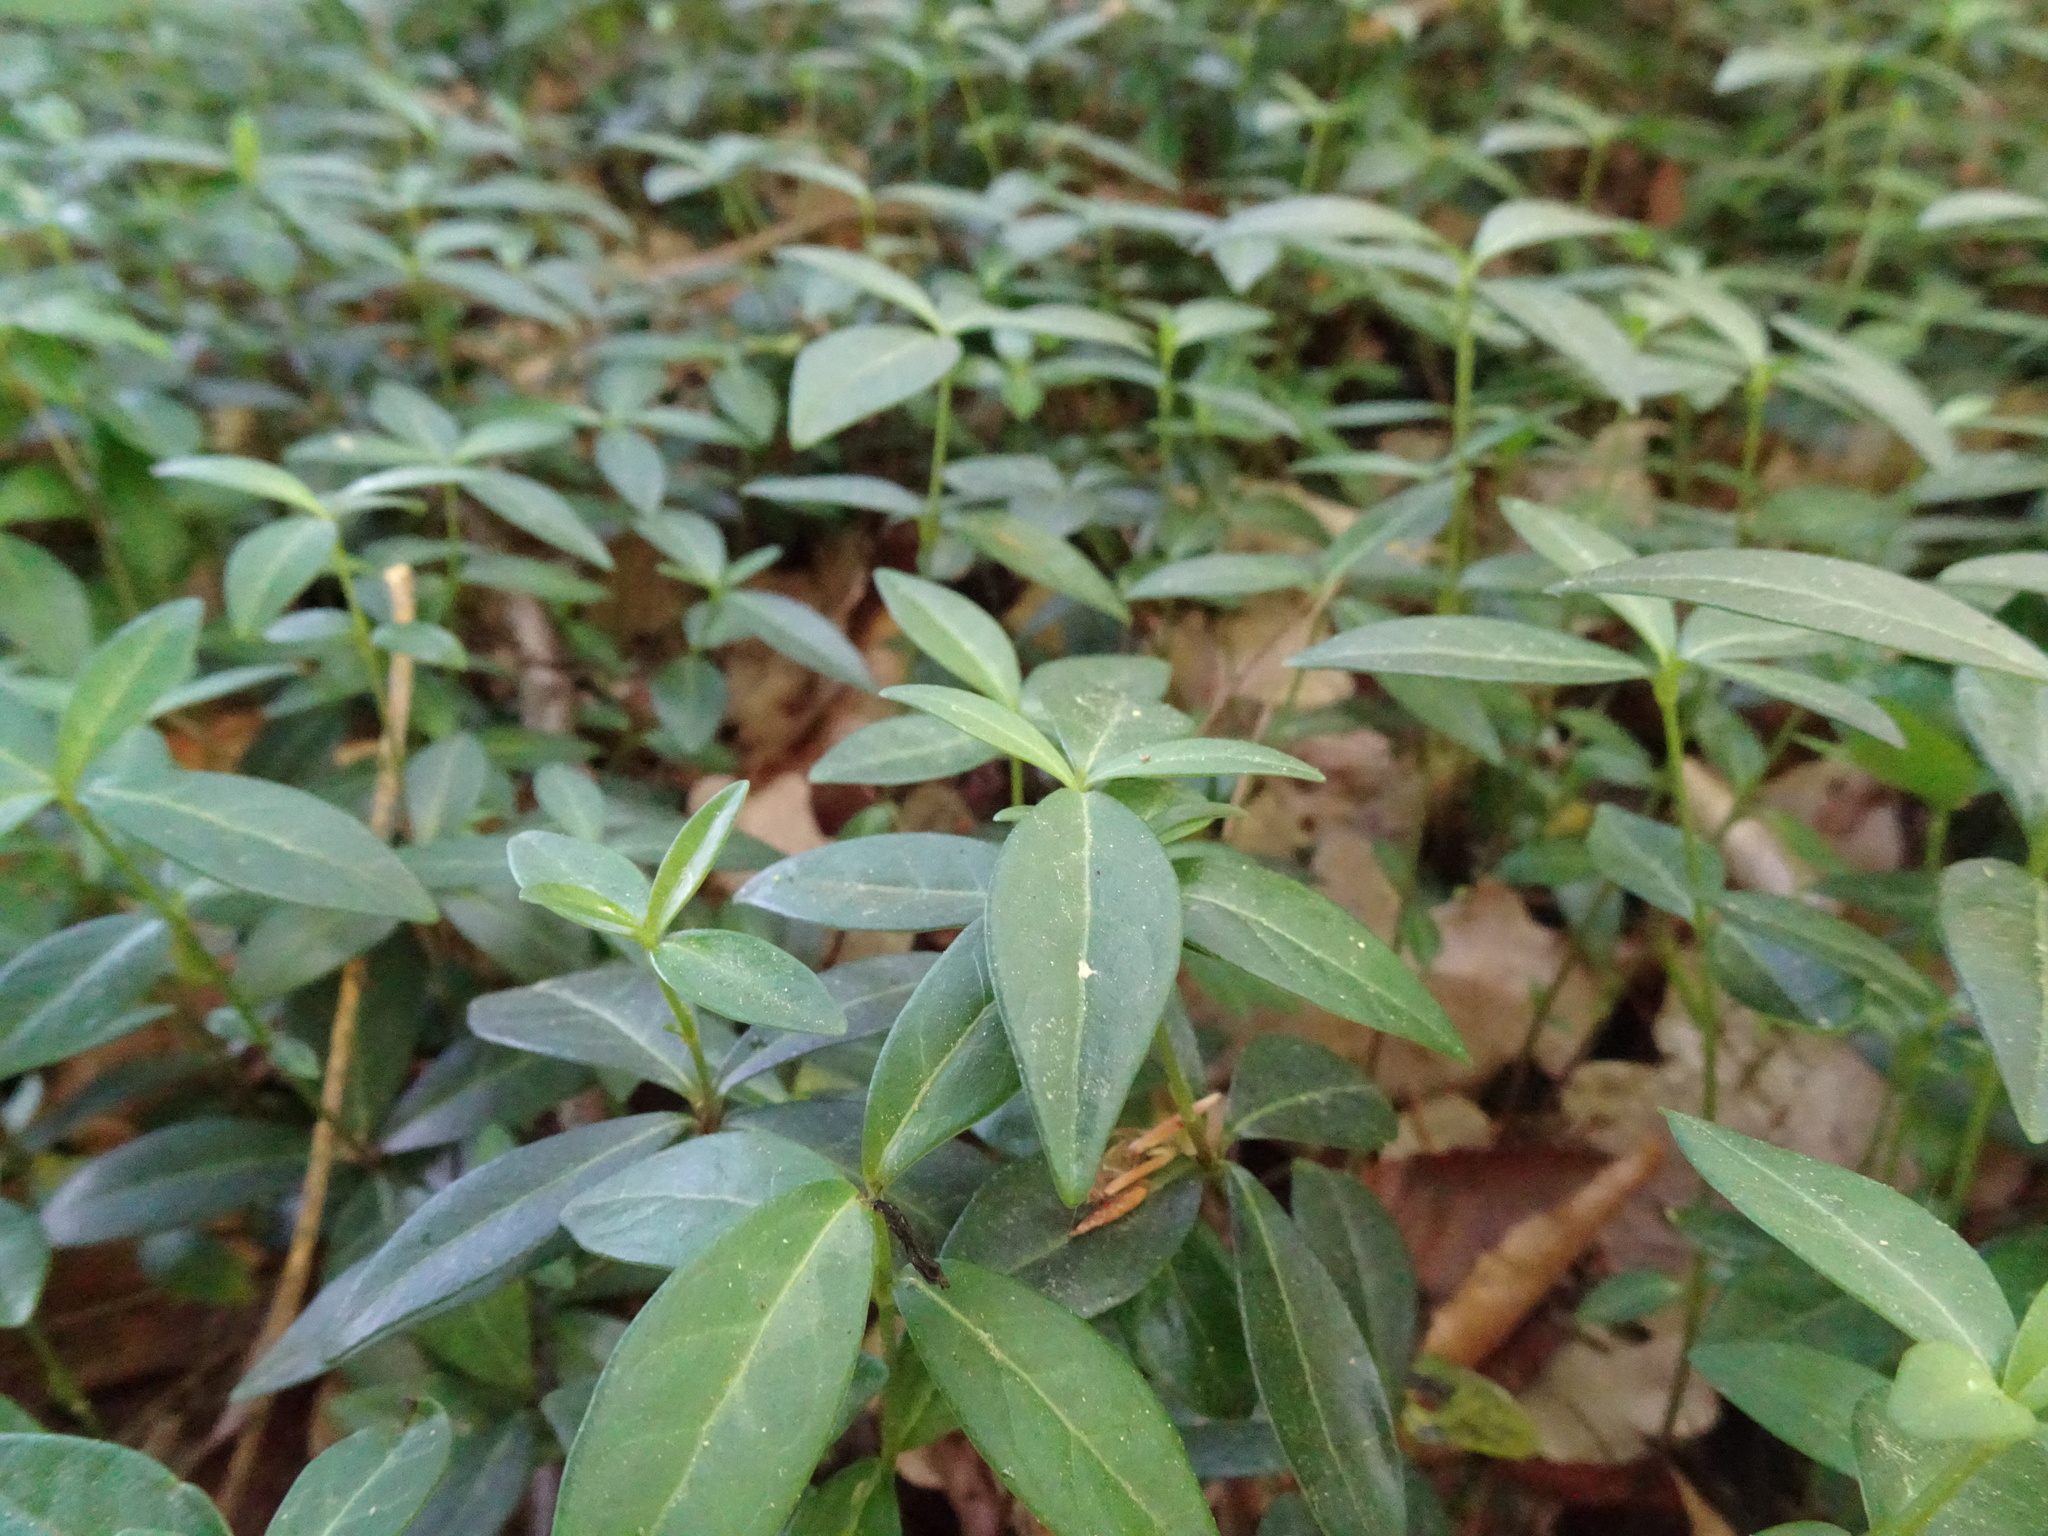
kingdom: Plantae
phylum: Tracheophyta
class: Magnoliopsida
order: Gentianales
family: Apocynaceae
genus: Vinca
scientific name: Vinca minor
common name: Lesser periwinkle
